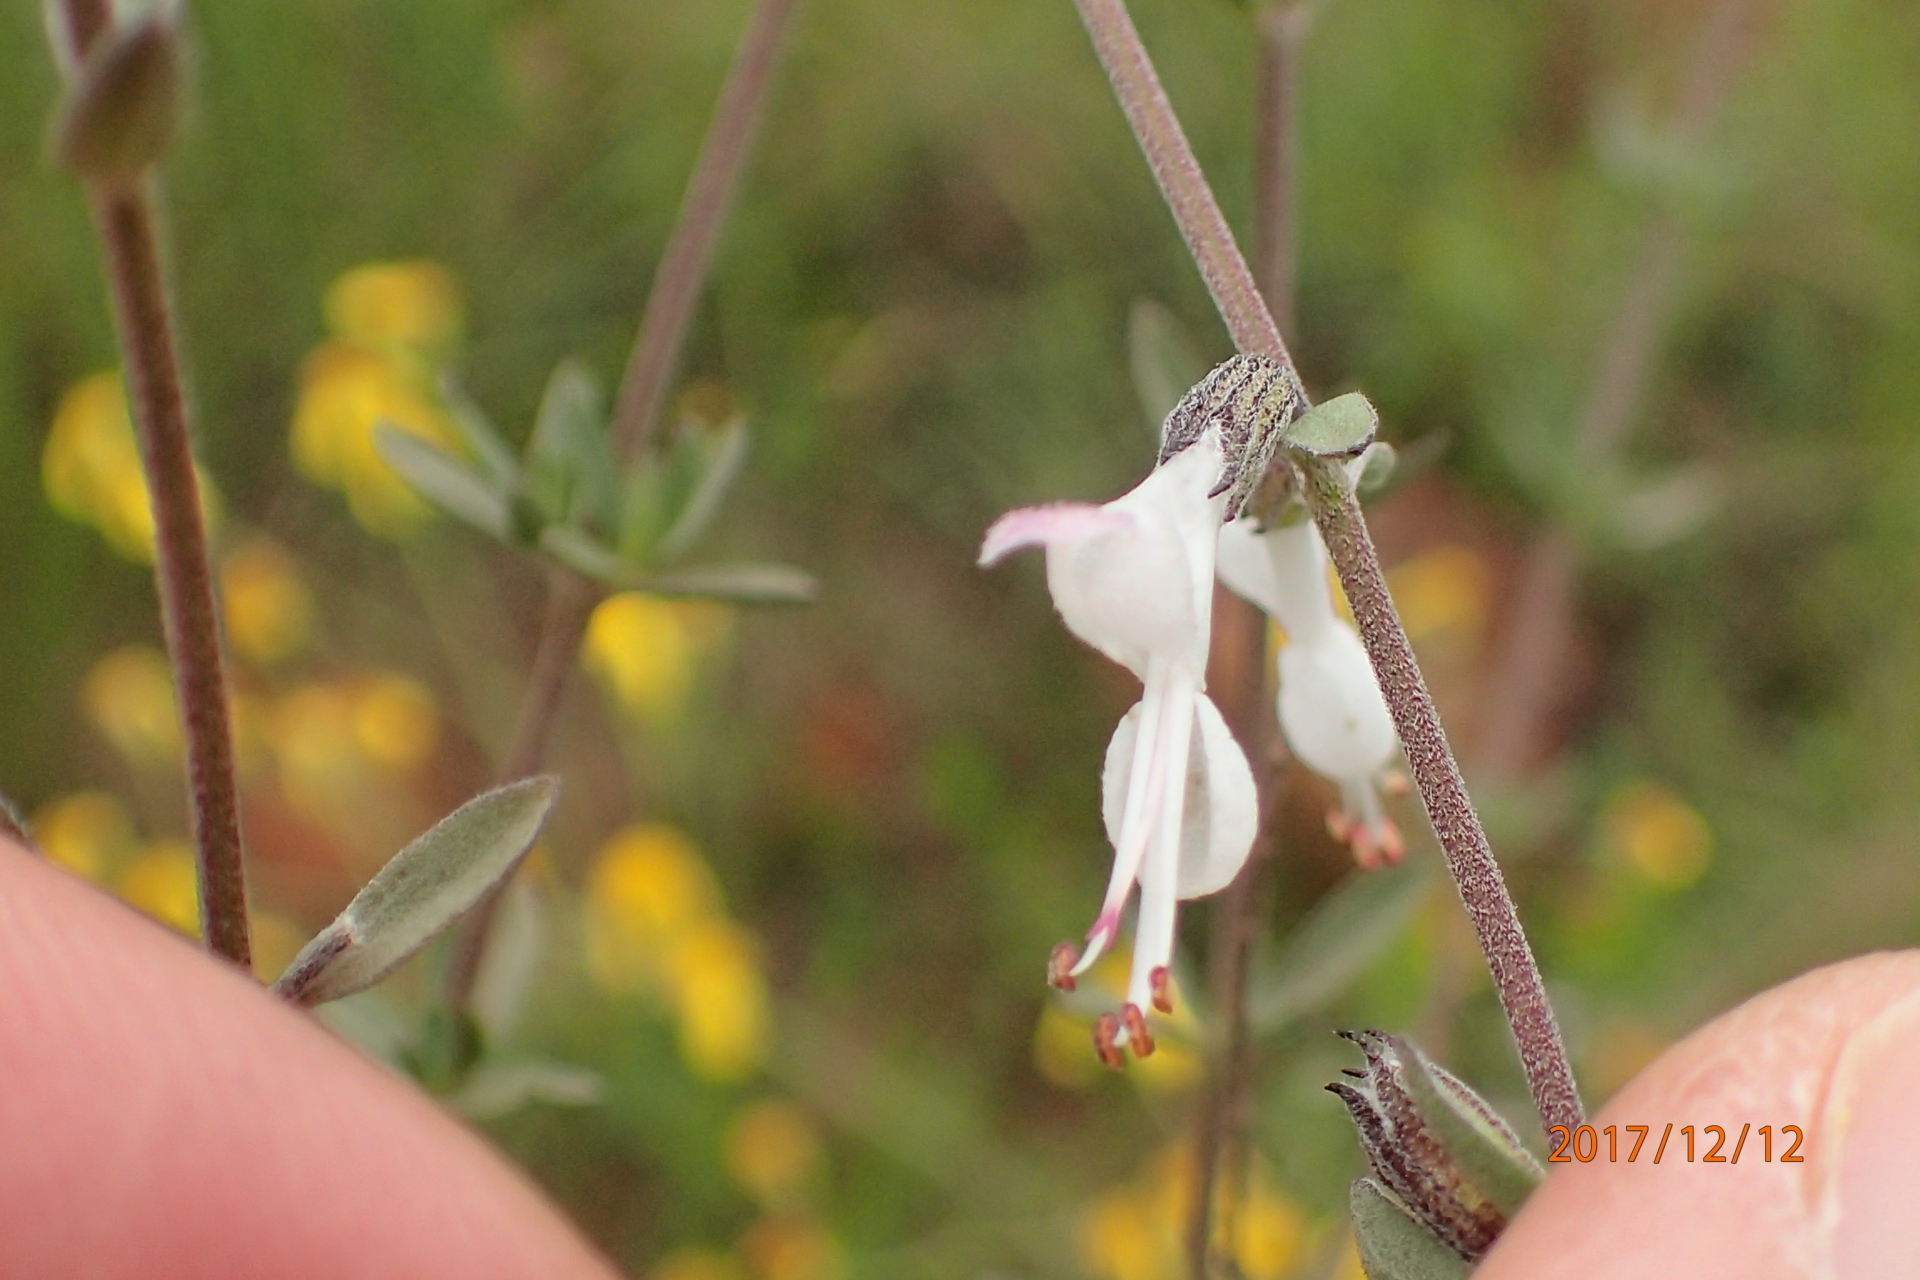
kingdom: Plantae
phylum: Tracheophyta
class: Magnoliopsida
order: Lamiales
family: Lamiaceae
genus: Syncolostemon
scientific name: Syncolostemon argenteus
